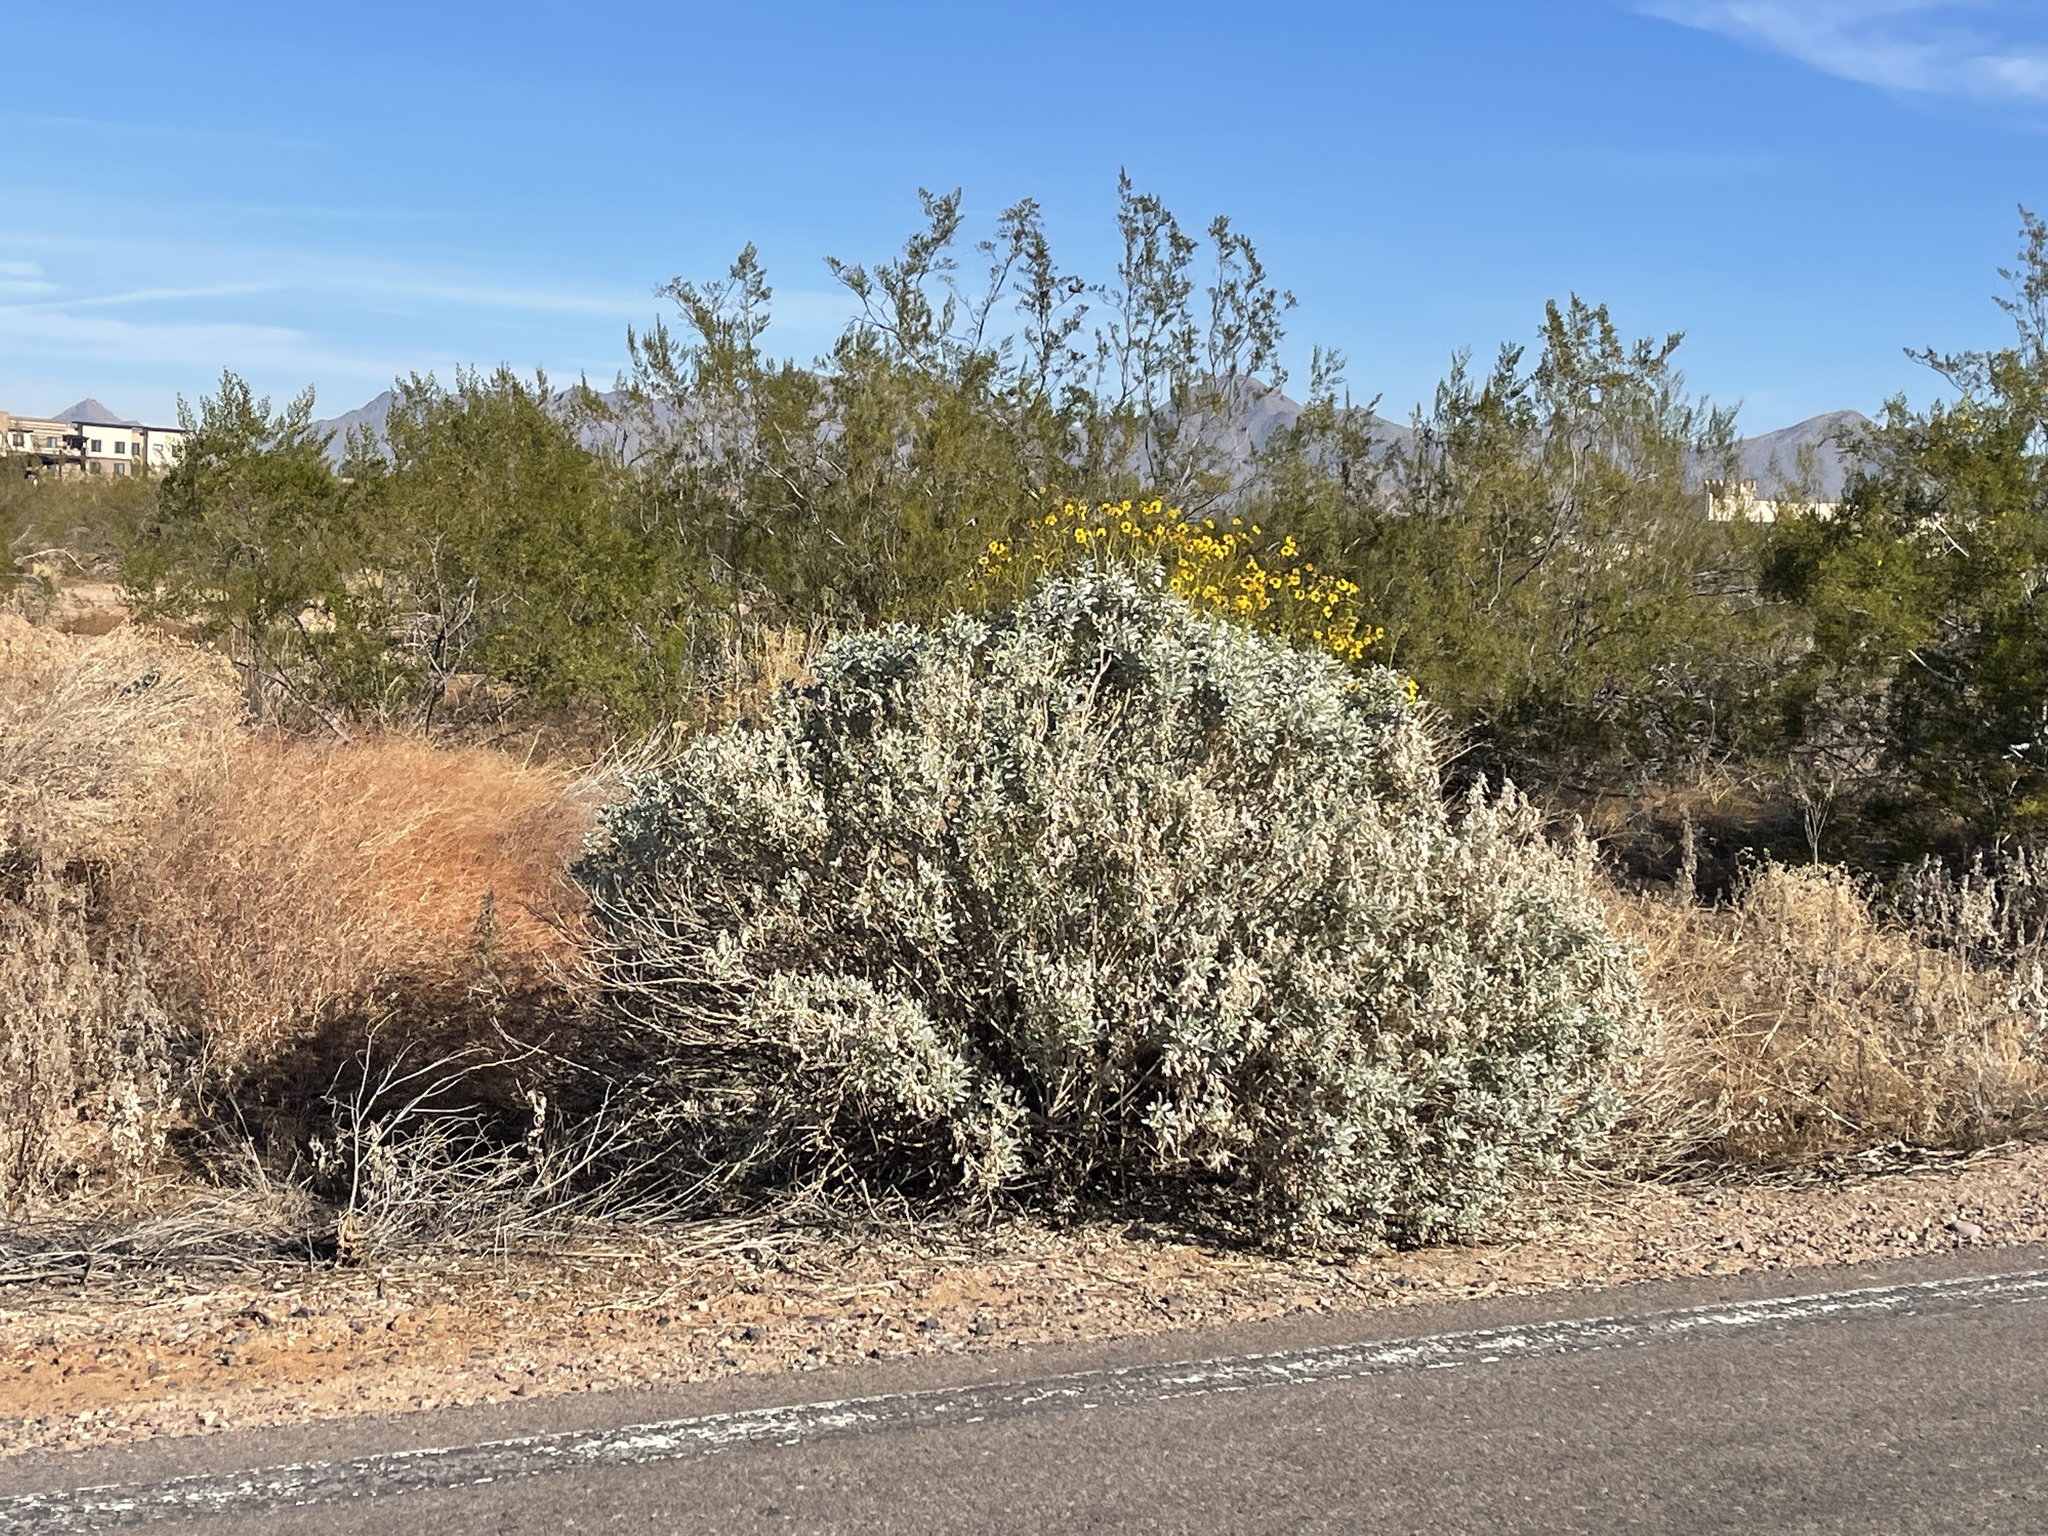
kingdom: Plantae
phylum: Tracheophyta
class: Magnoliopsida
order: Asterales
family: Asteraceae
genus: Encelia
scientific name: Encelia farinosa
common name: Brittlebush
